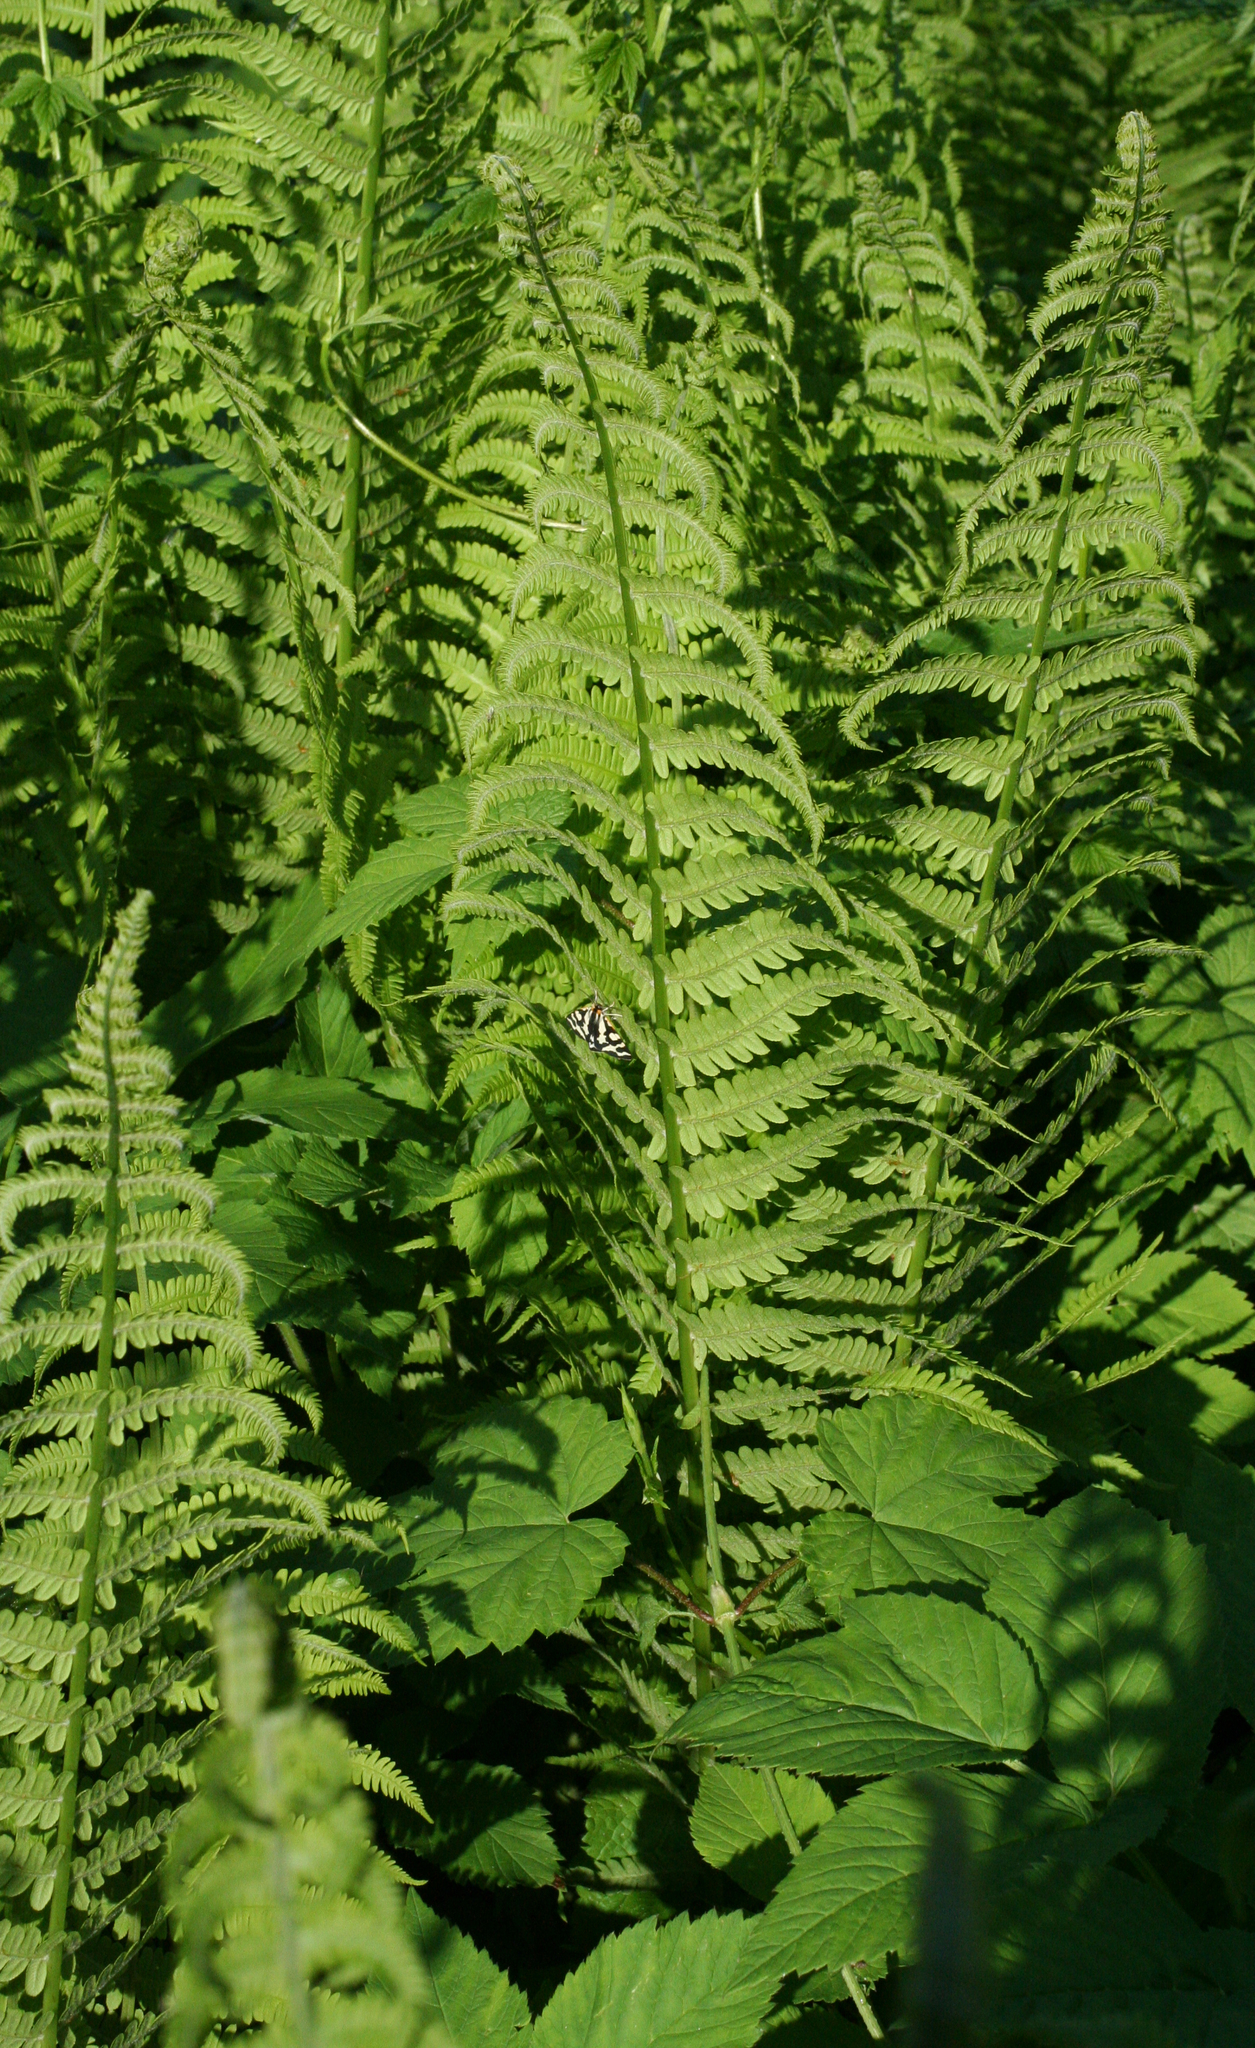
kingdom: Animalia
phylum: Arthropoda
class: Insecta
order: Lepidoptera
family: Erebidae
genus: Parasemia
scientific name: Parasemia plantaginis
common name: Wood tiger
